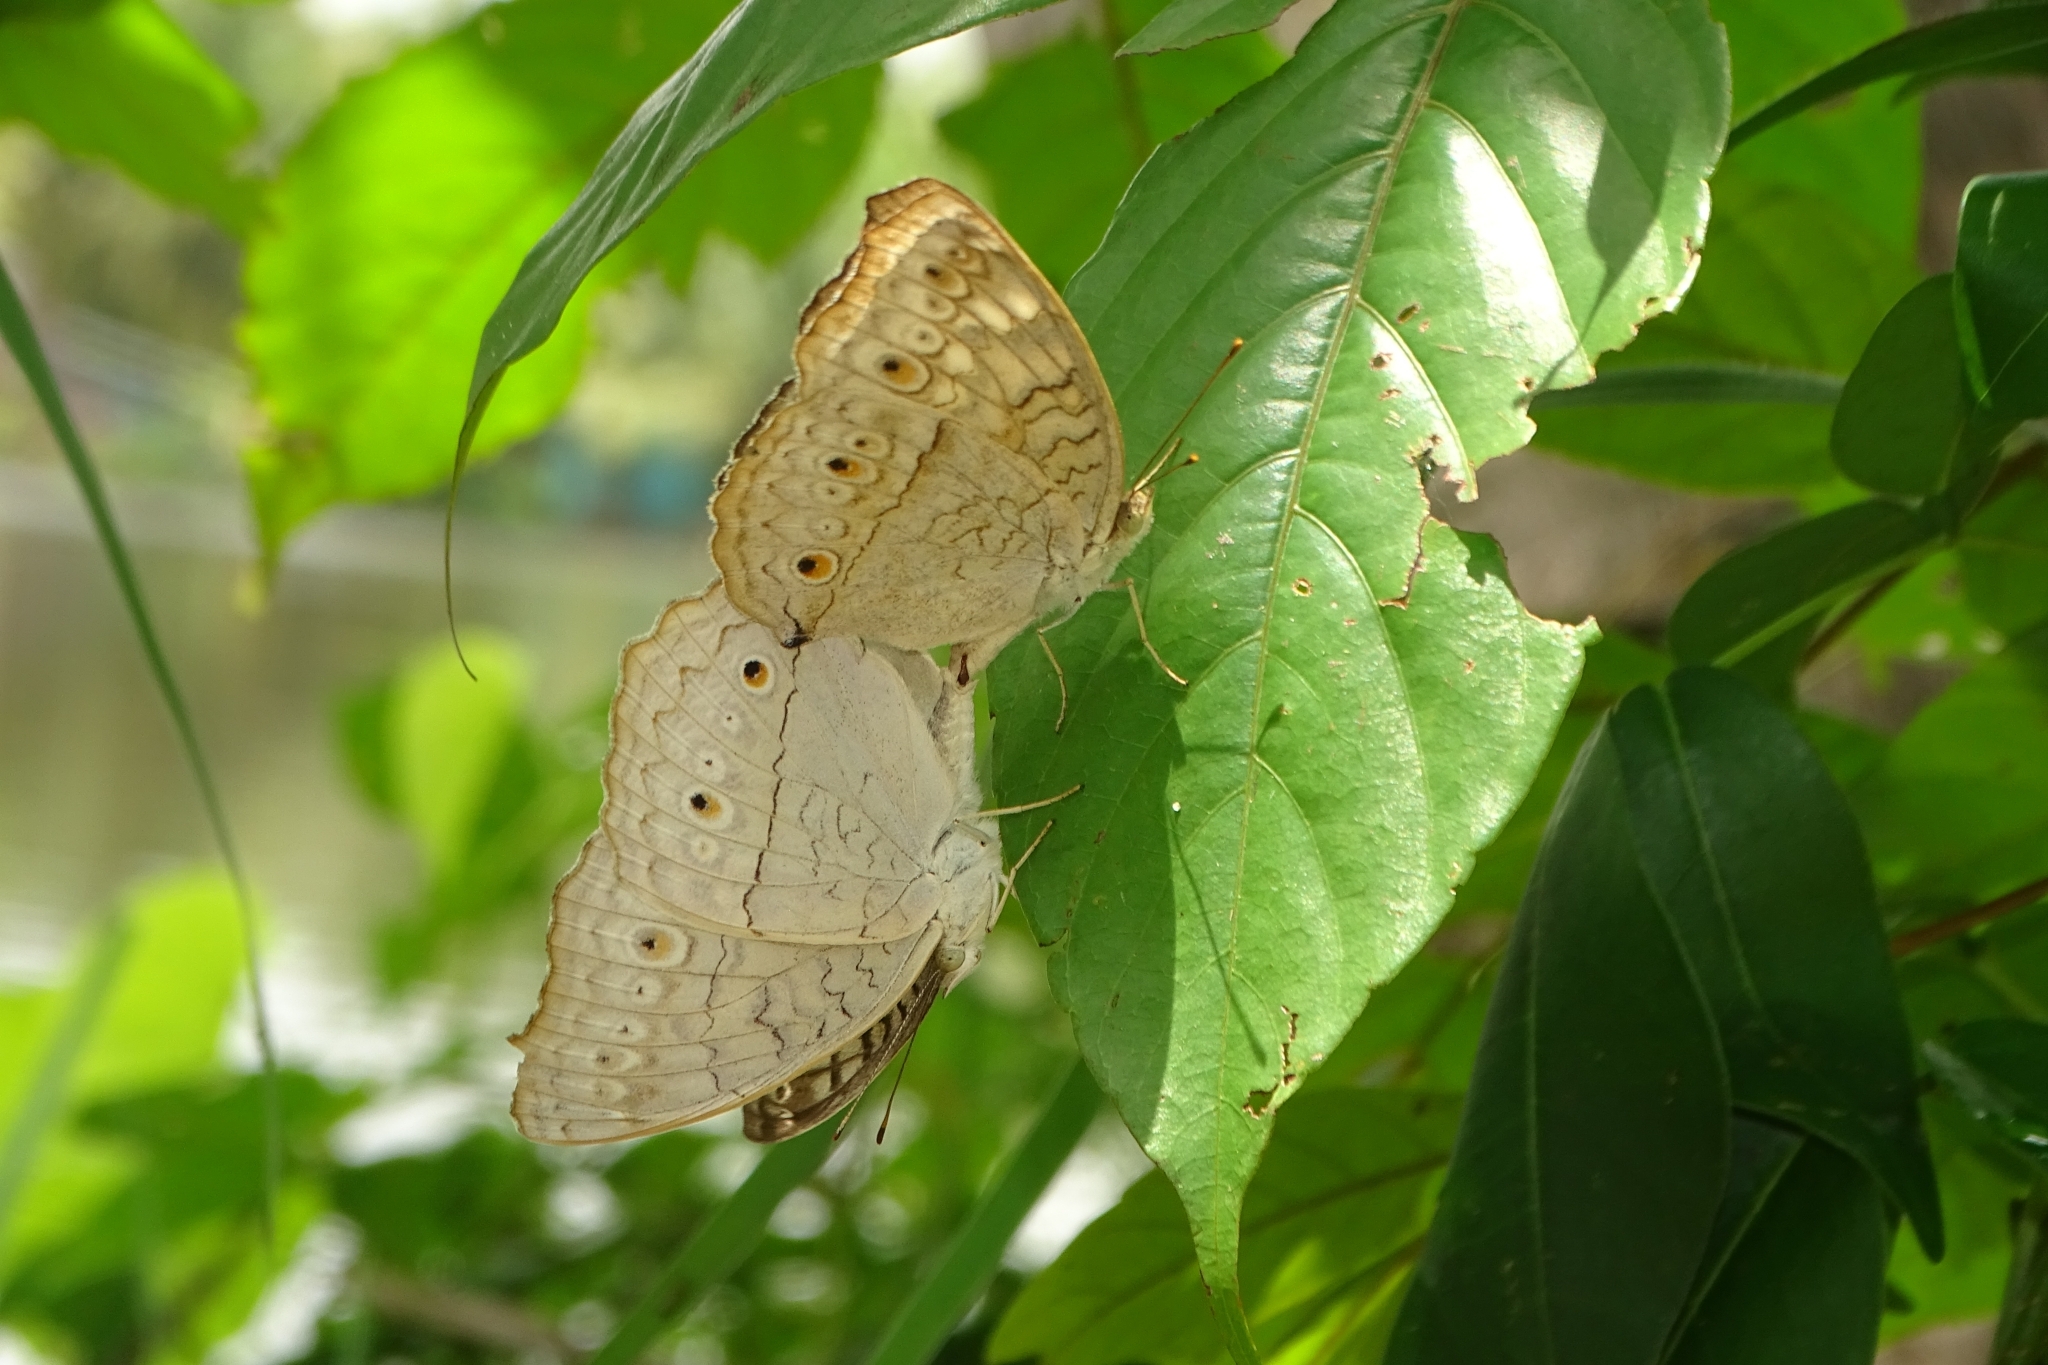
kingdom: Animalia
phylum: Arthropoda
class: Insecta
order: Lepidoptera
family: Nymphalidae
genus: Junonia
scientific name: Junonia atlites
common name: Grey pansy
